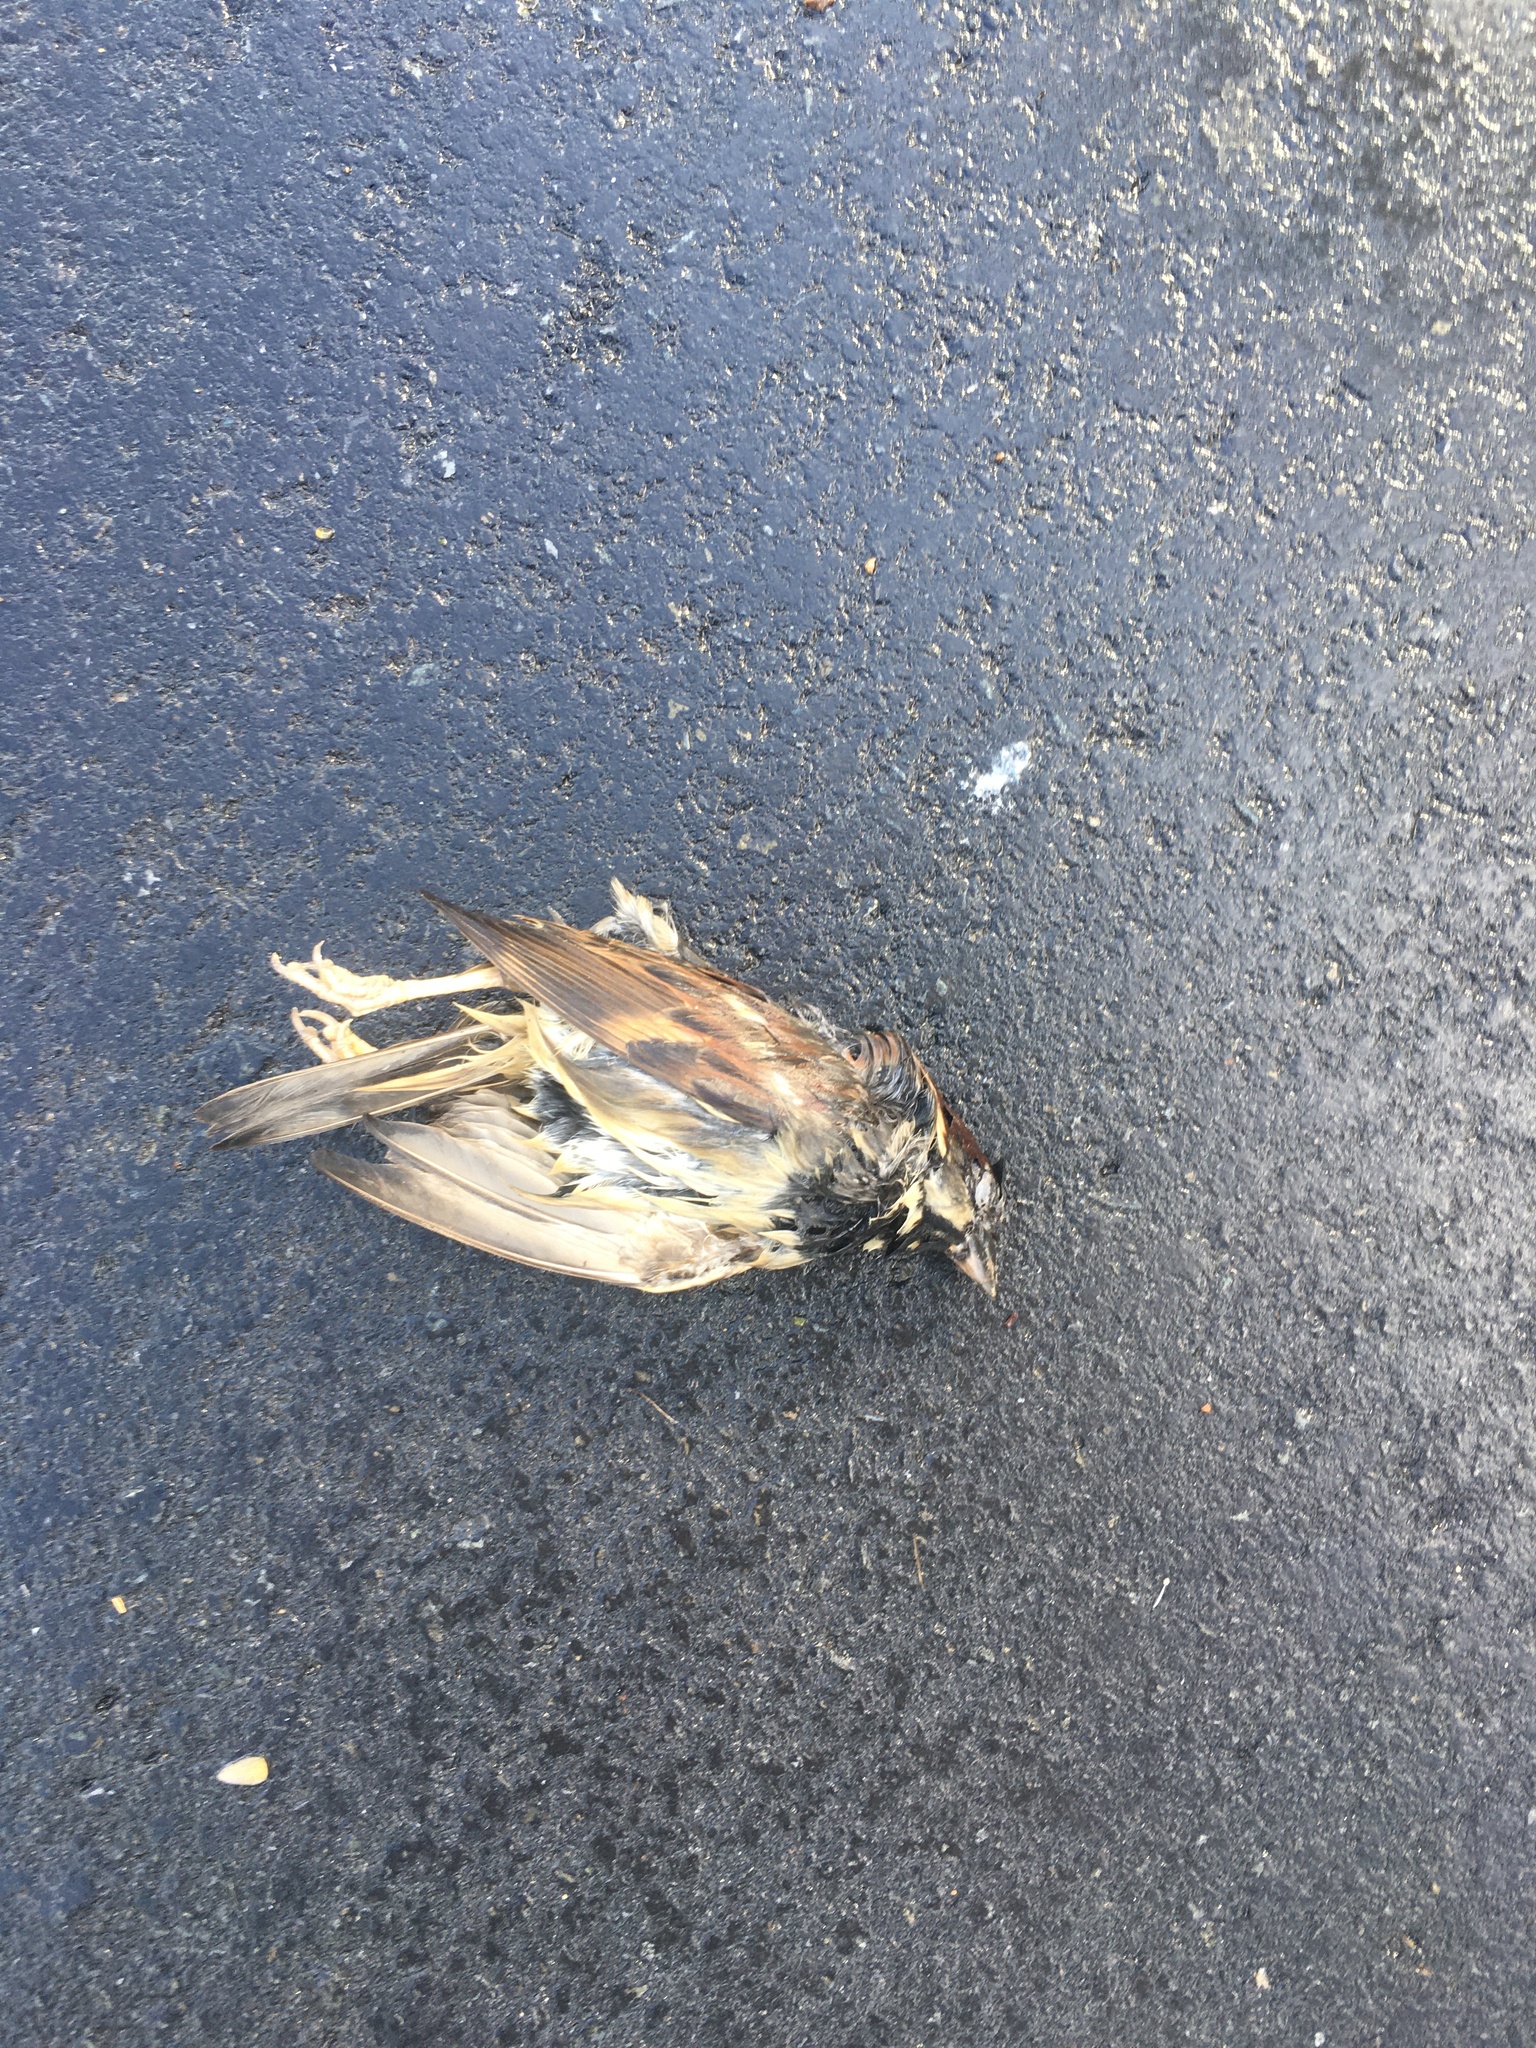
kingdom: Animalia
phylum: Chordata
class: Aves
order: Passeriformes
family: Passeridae
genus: Passer
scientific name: Passer domesticus
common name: House sparrow
